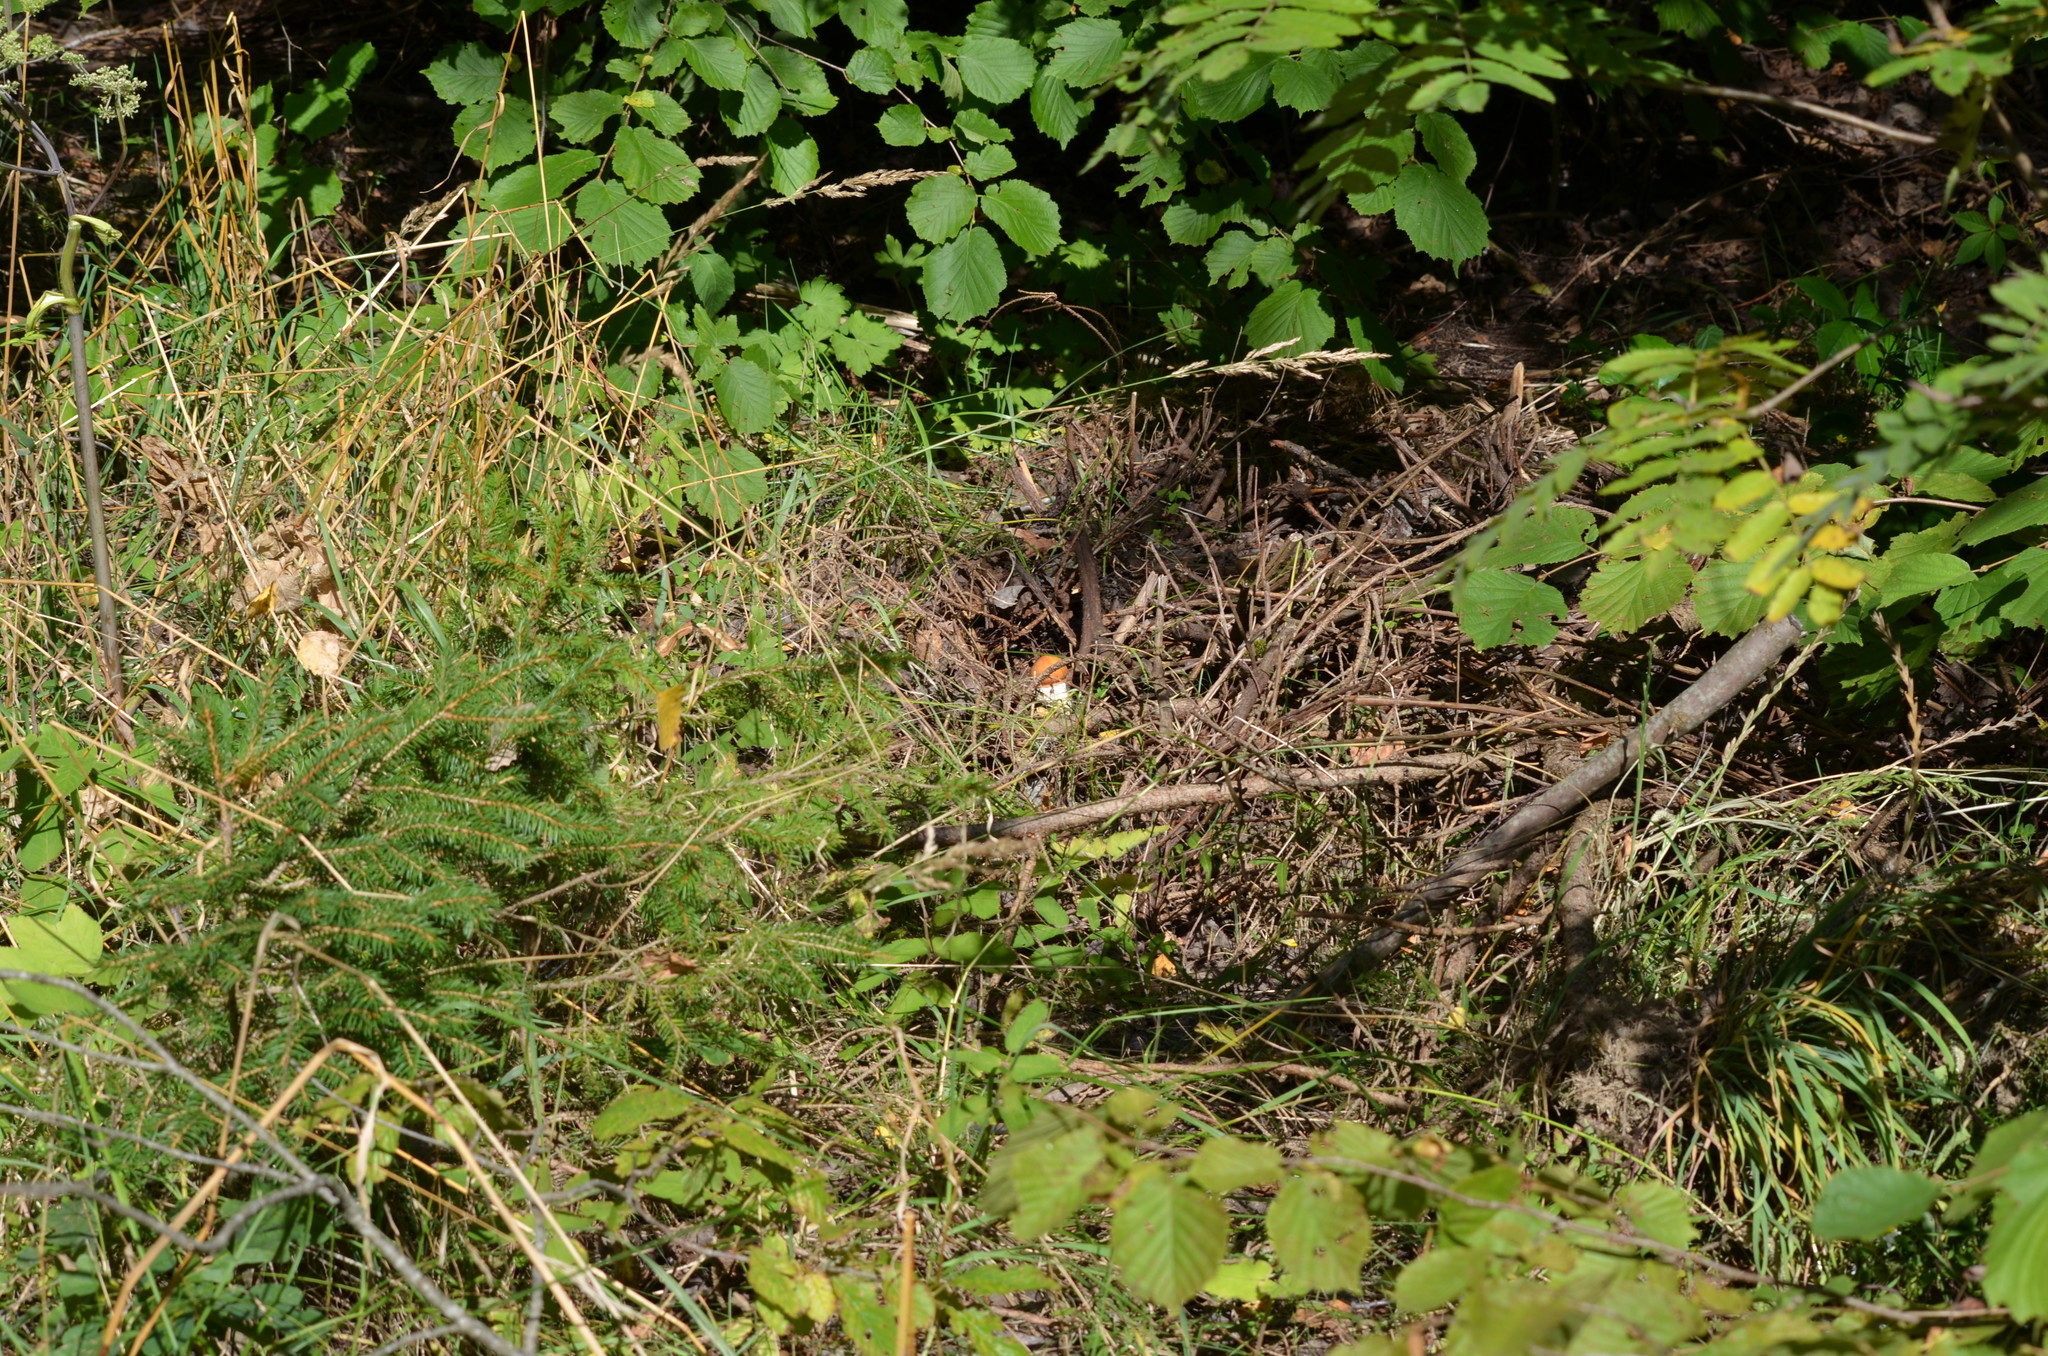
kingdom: Fungi
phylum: Basidiomycota
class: Agaricomycetes
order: Boletales
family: Boletaceae
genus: Leccinum
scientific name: Leccinum albostipitatum
